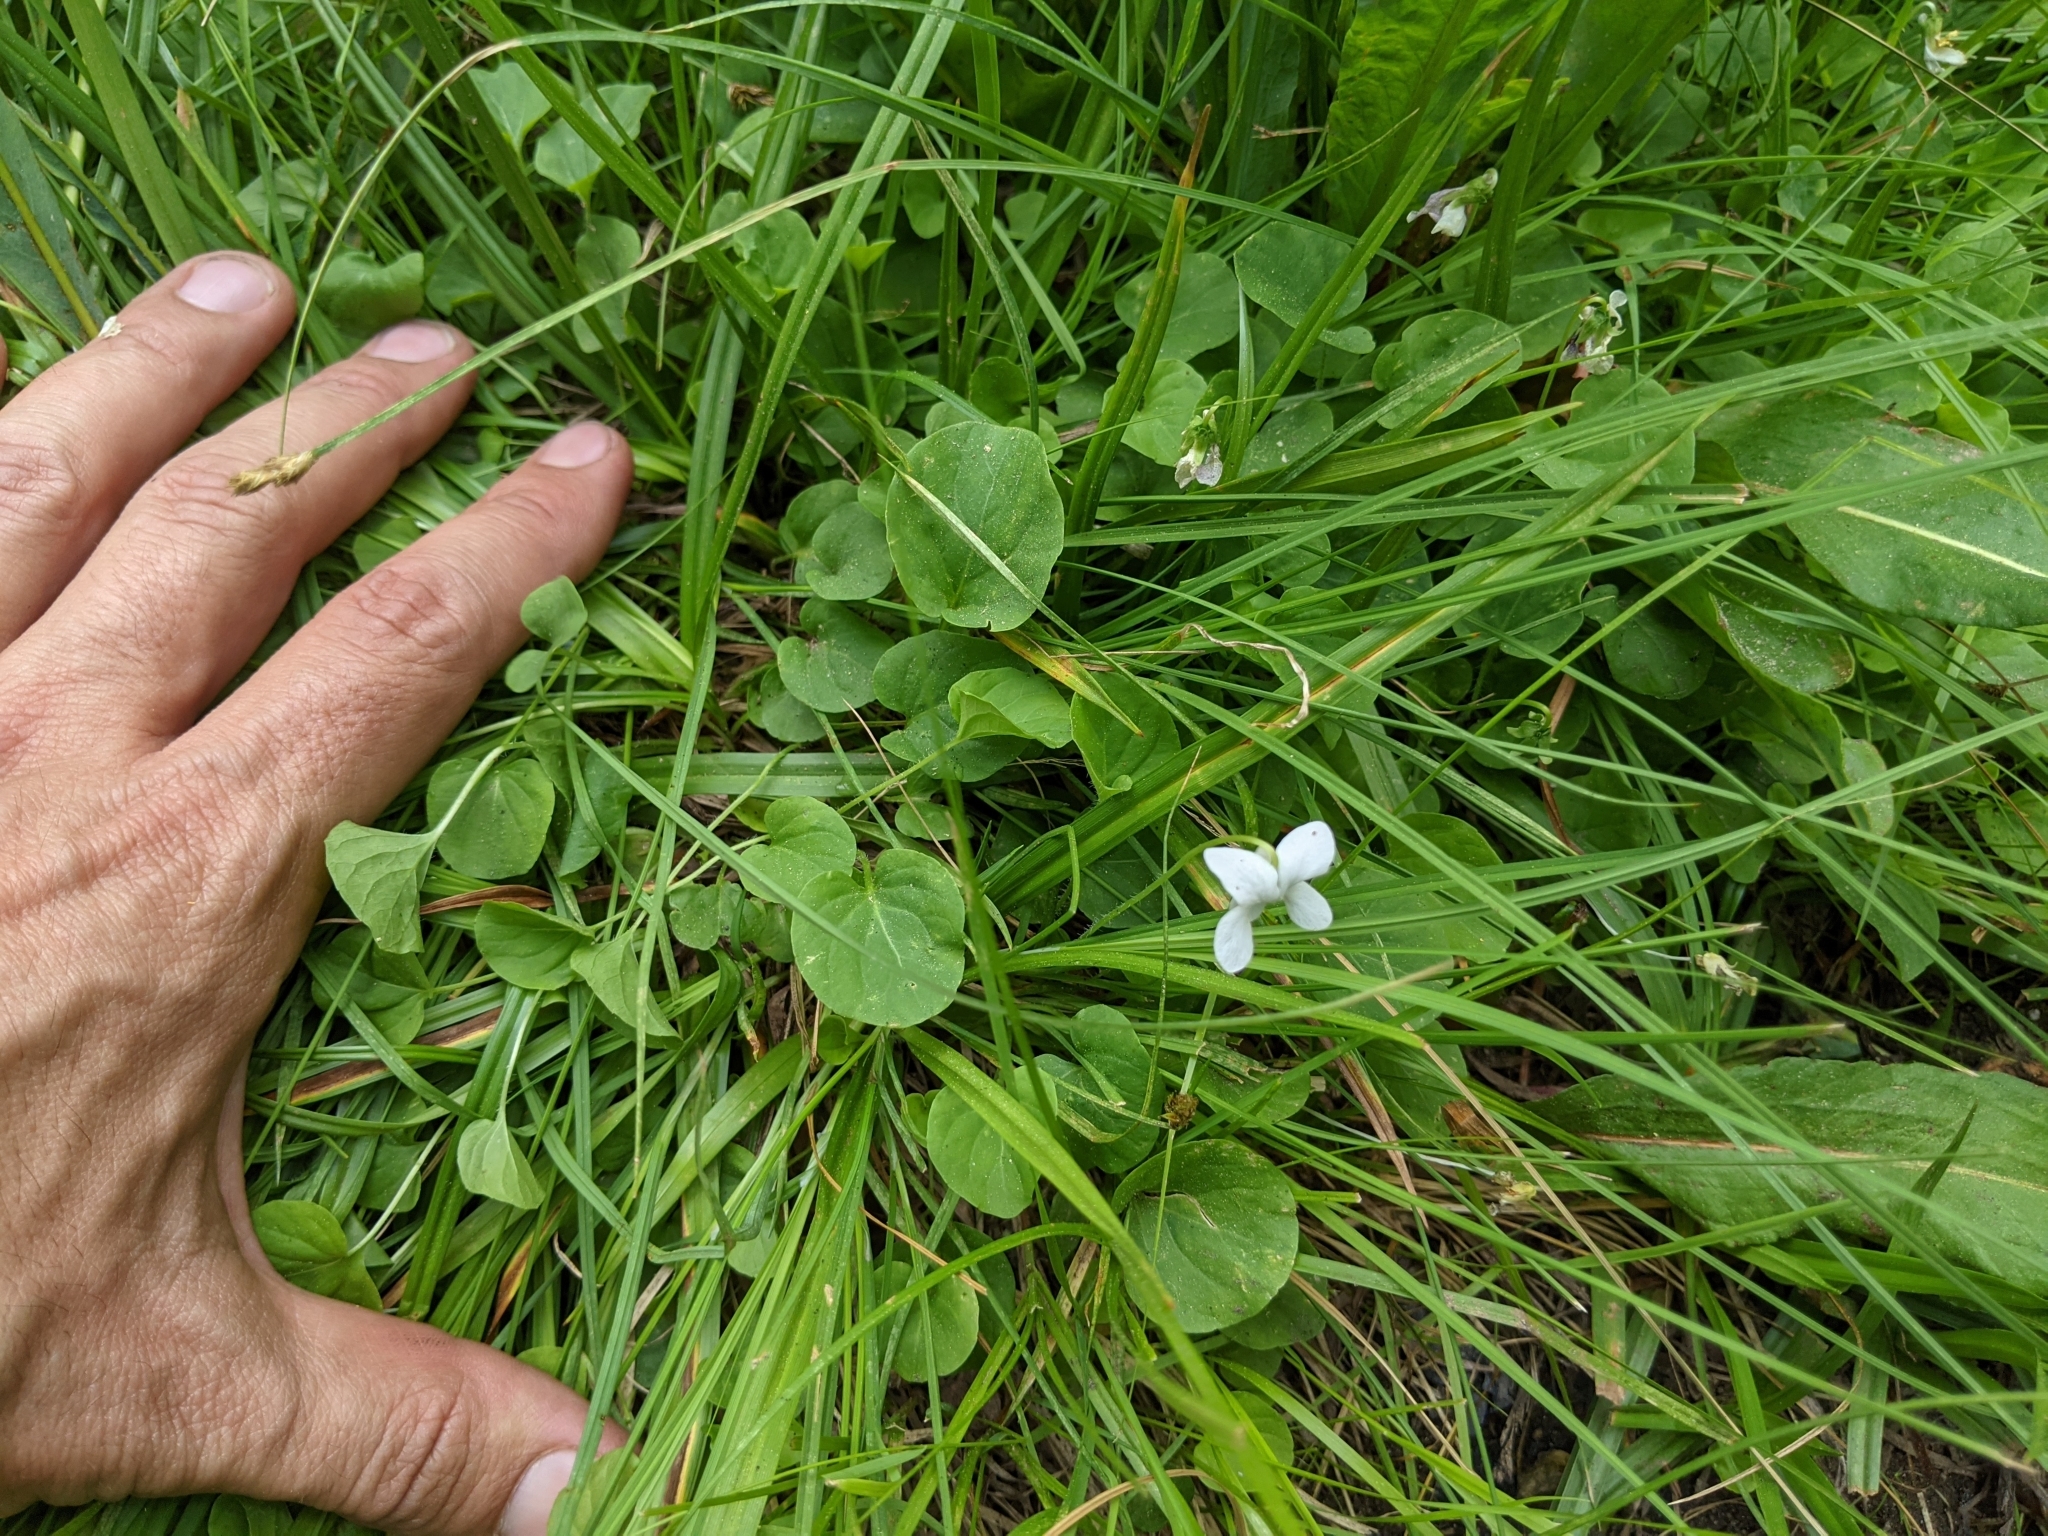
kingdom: Plantae
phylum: Tracheophyta
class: Magnoliopsida
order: Malpighiales
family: Violaceae
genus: Viola
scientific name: Viola macloskeyi
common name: Macloskey's violet
